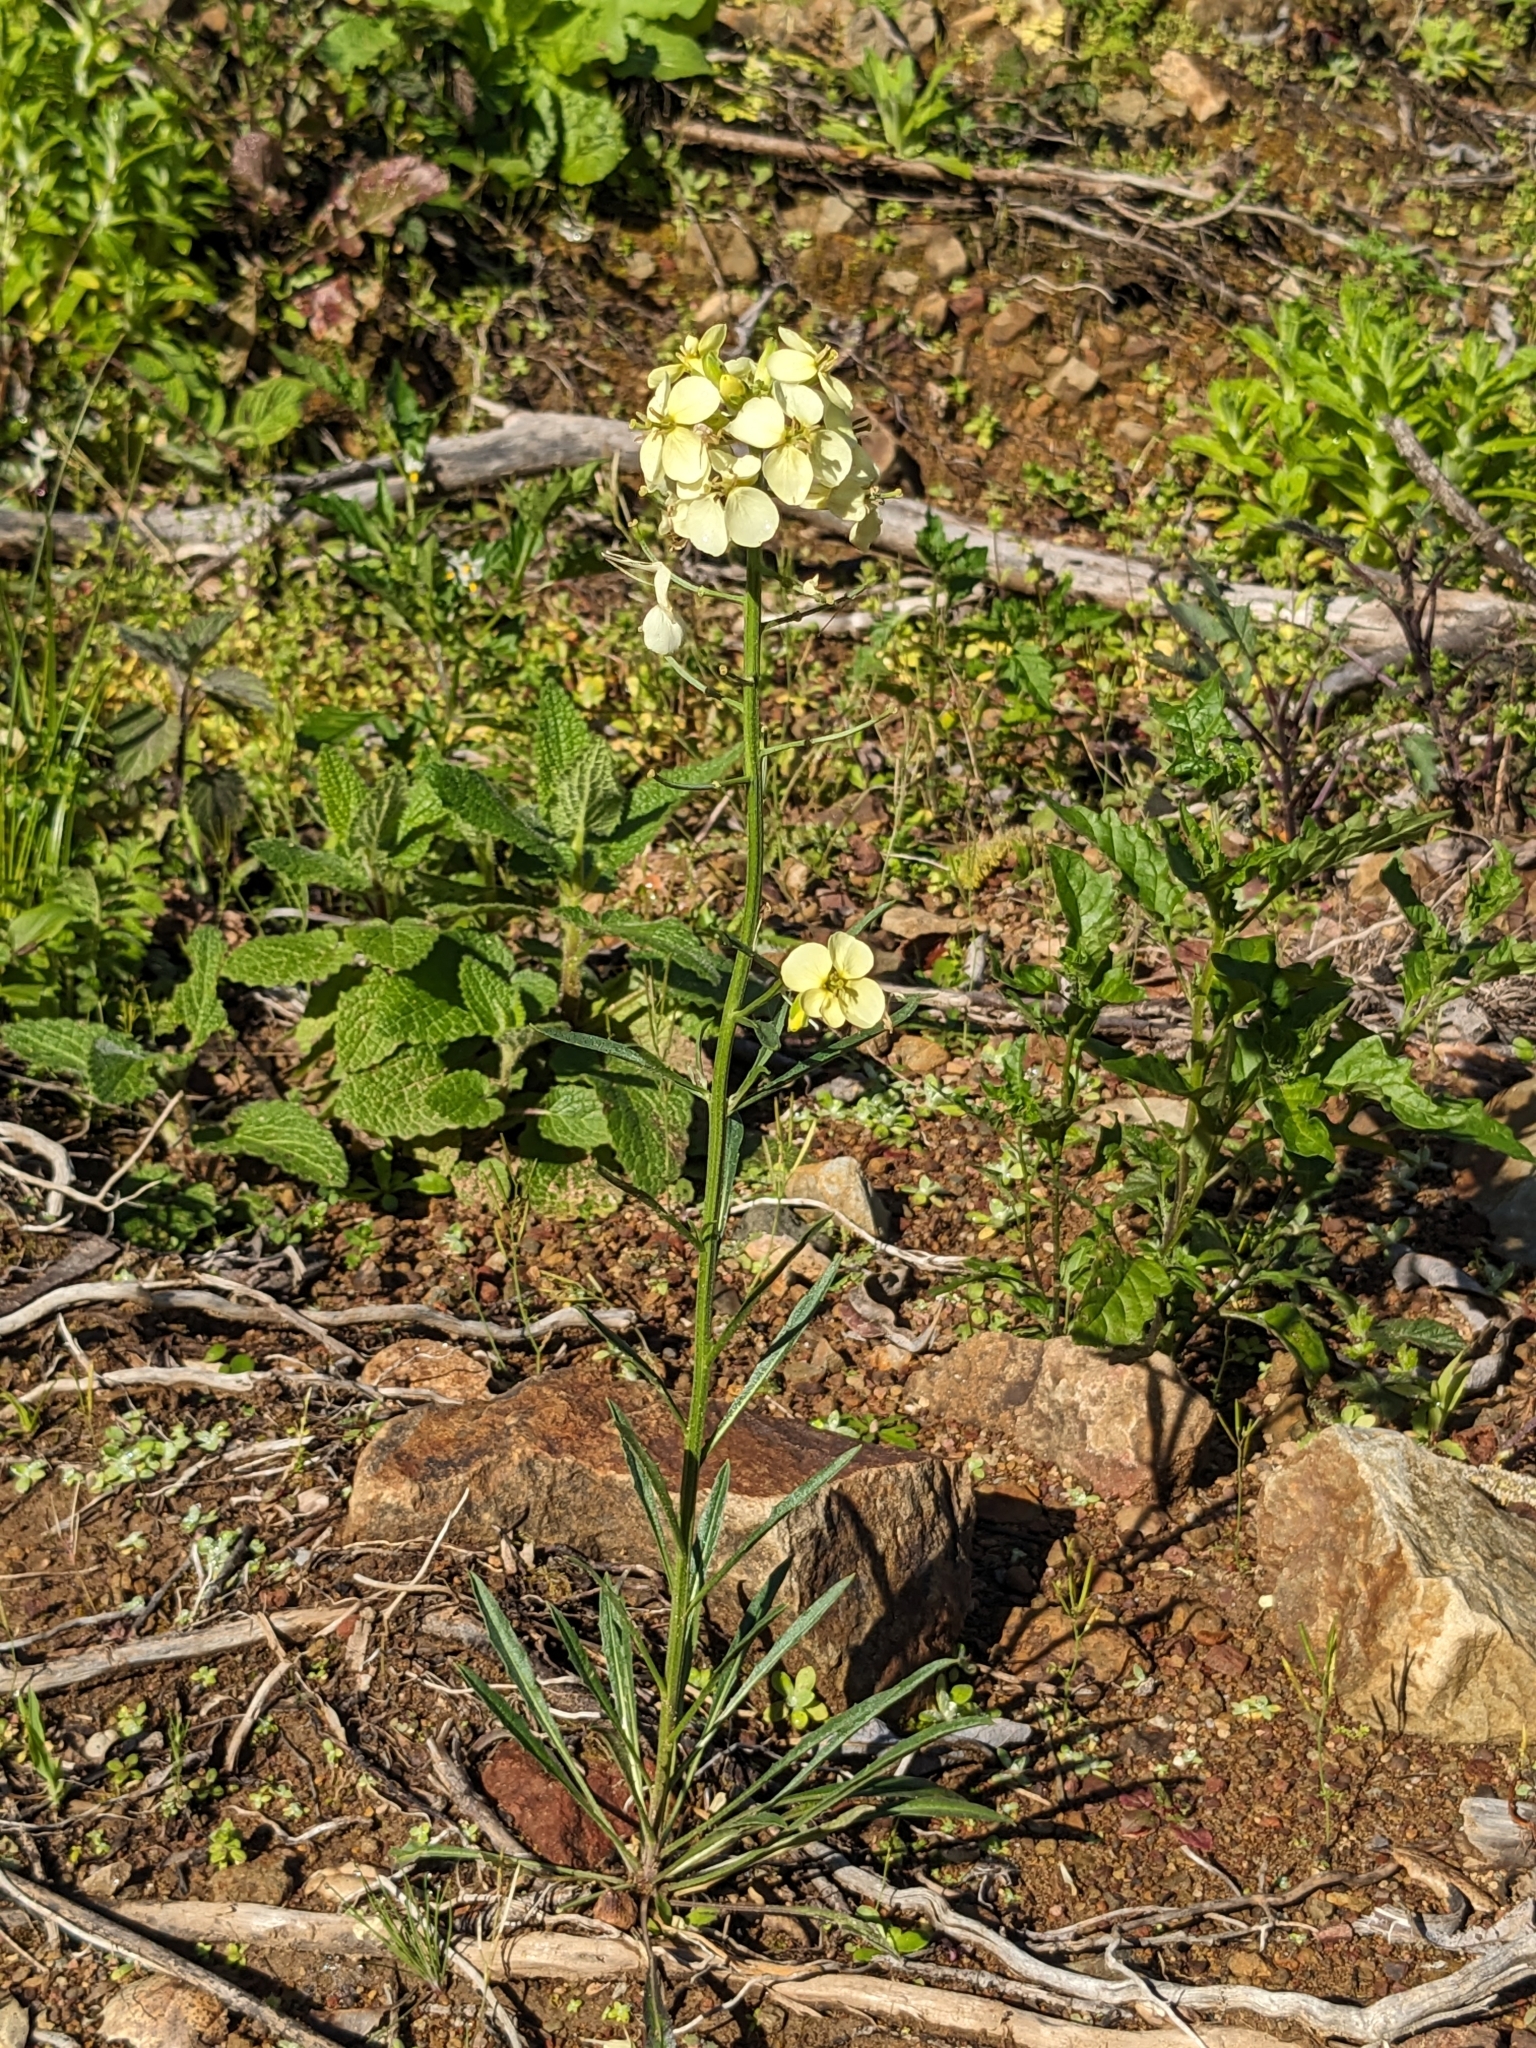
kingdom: Plantae
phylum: Tracheophyta
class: Magnoliopsida
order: Brassicales
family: Brassicaceae
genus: Erysimum
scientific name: Erysimum franciscanum
